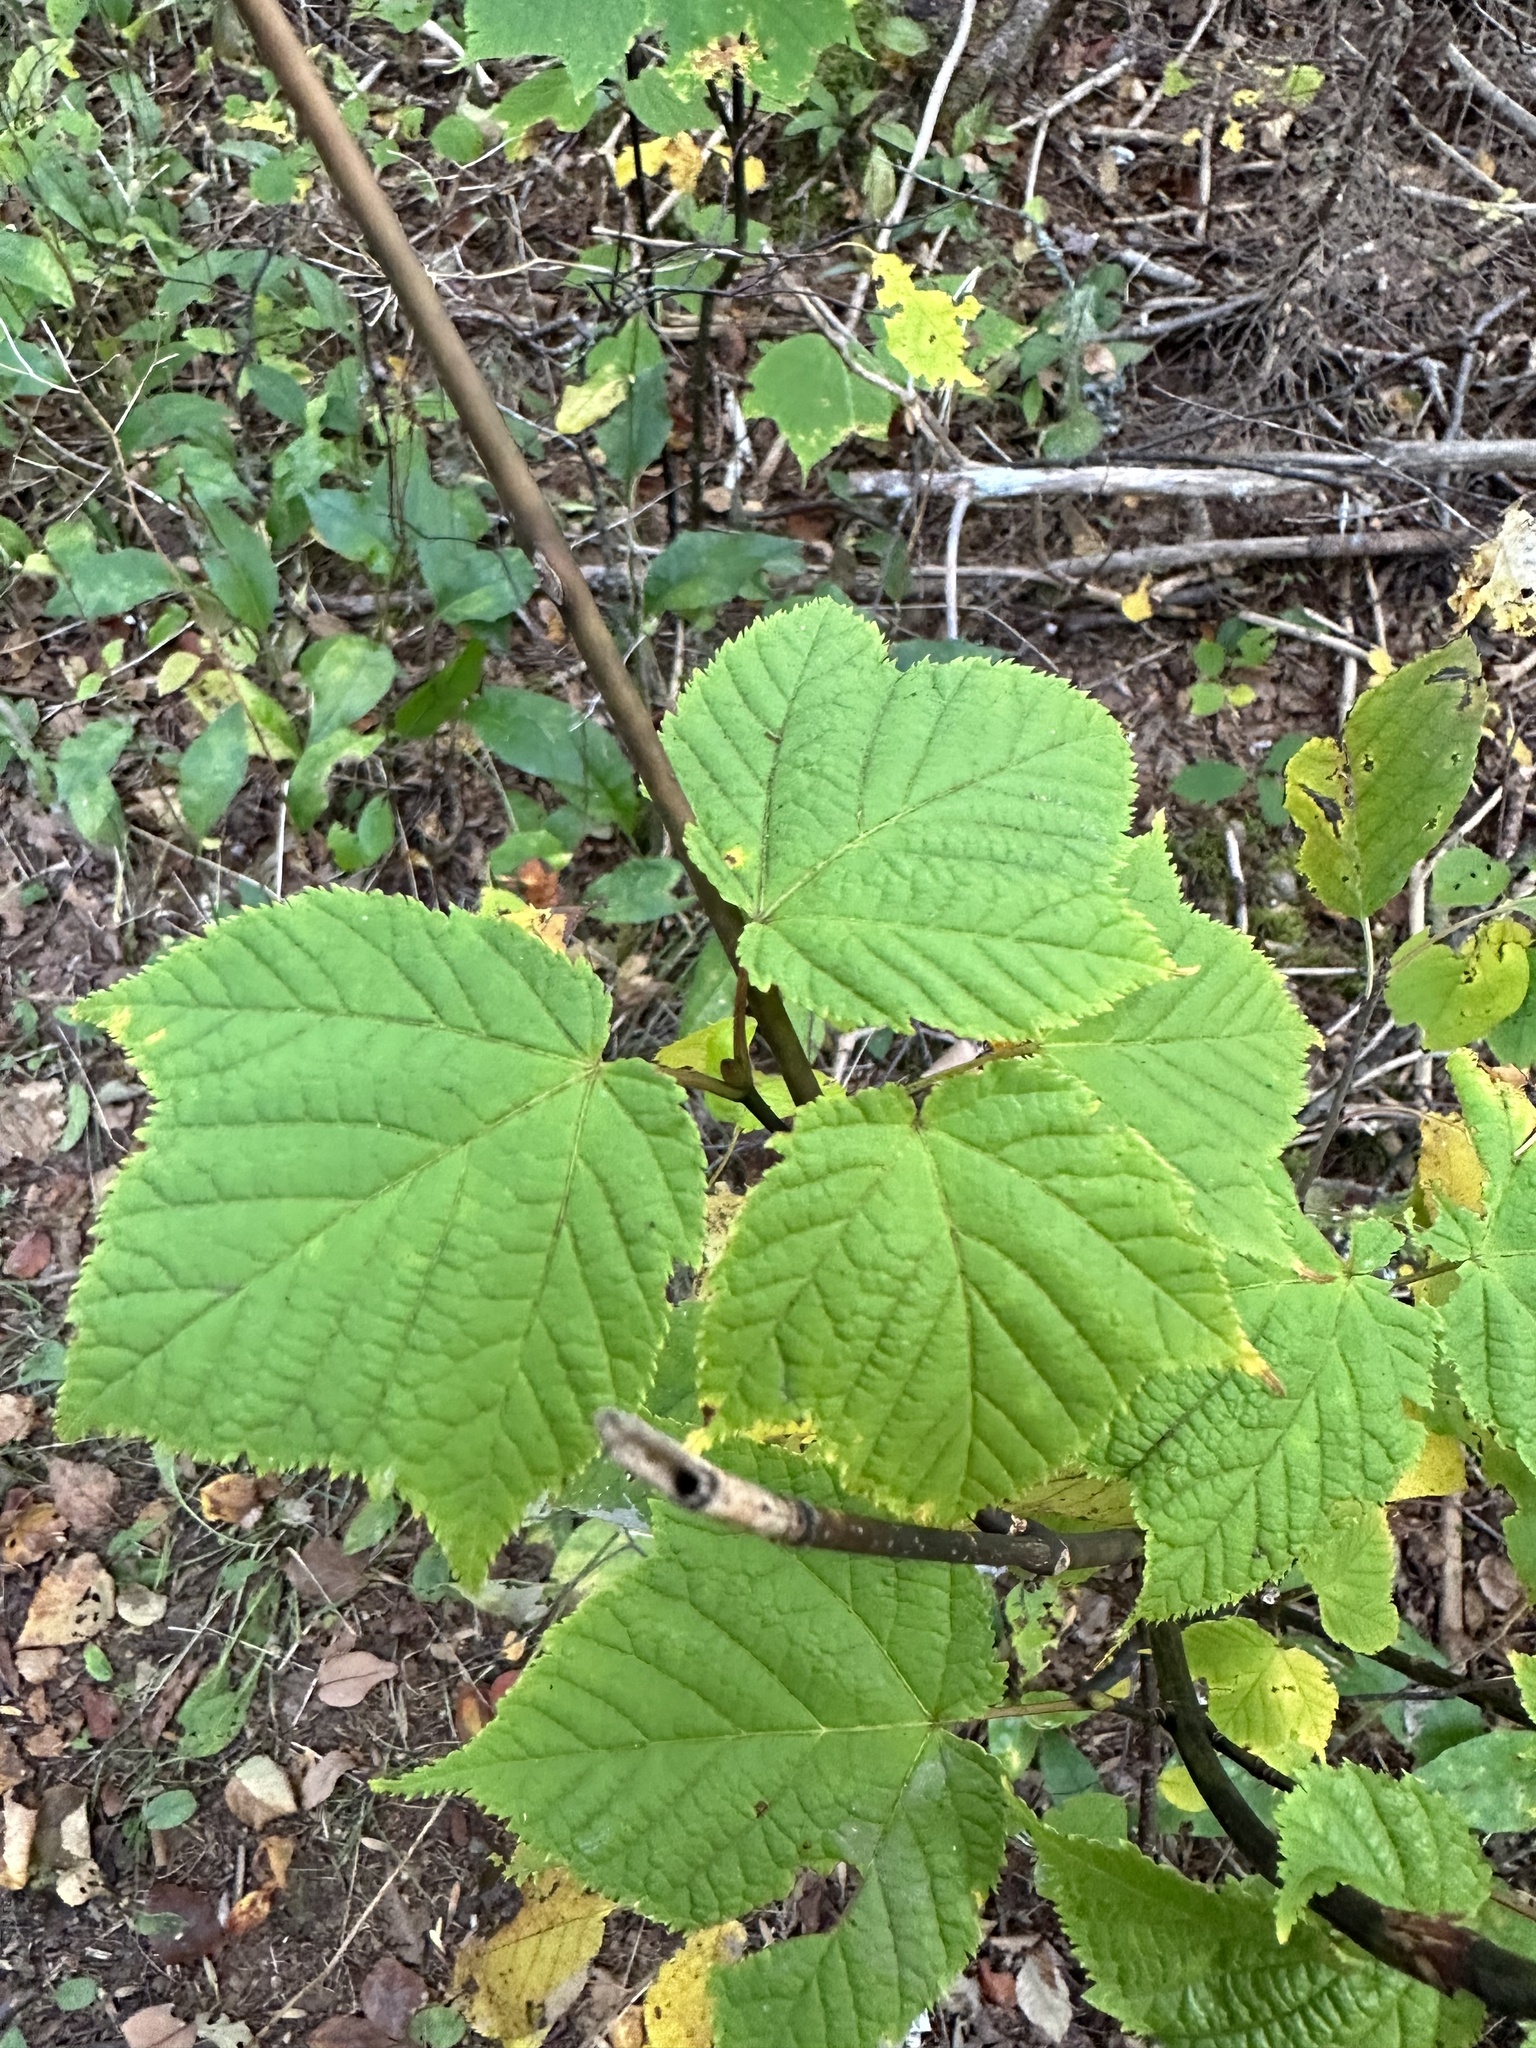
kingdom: Plantae
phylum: Tracheophyta
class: Magnoliopsida
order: Sapindales
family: Sapindaceae
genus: Acer
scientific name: Acer pensylvanicum
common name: Moosewood
